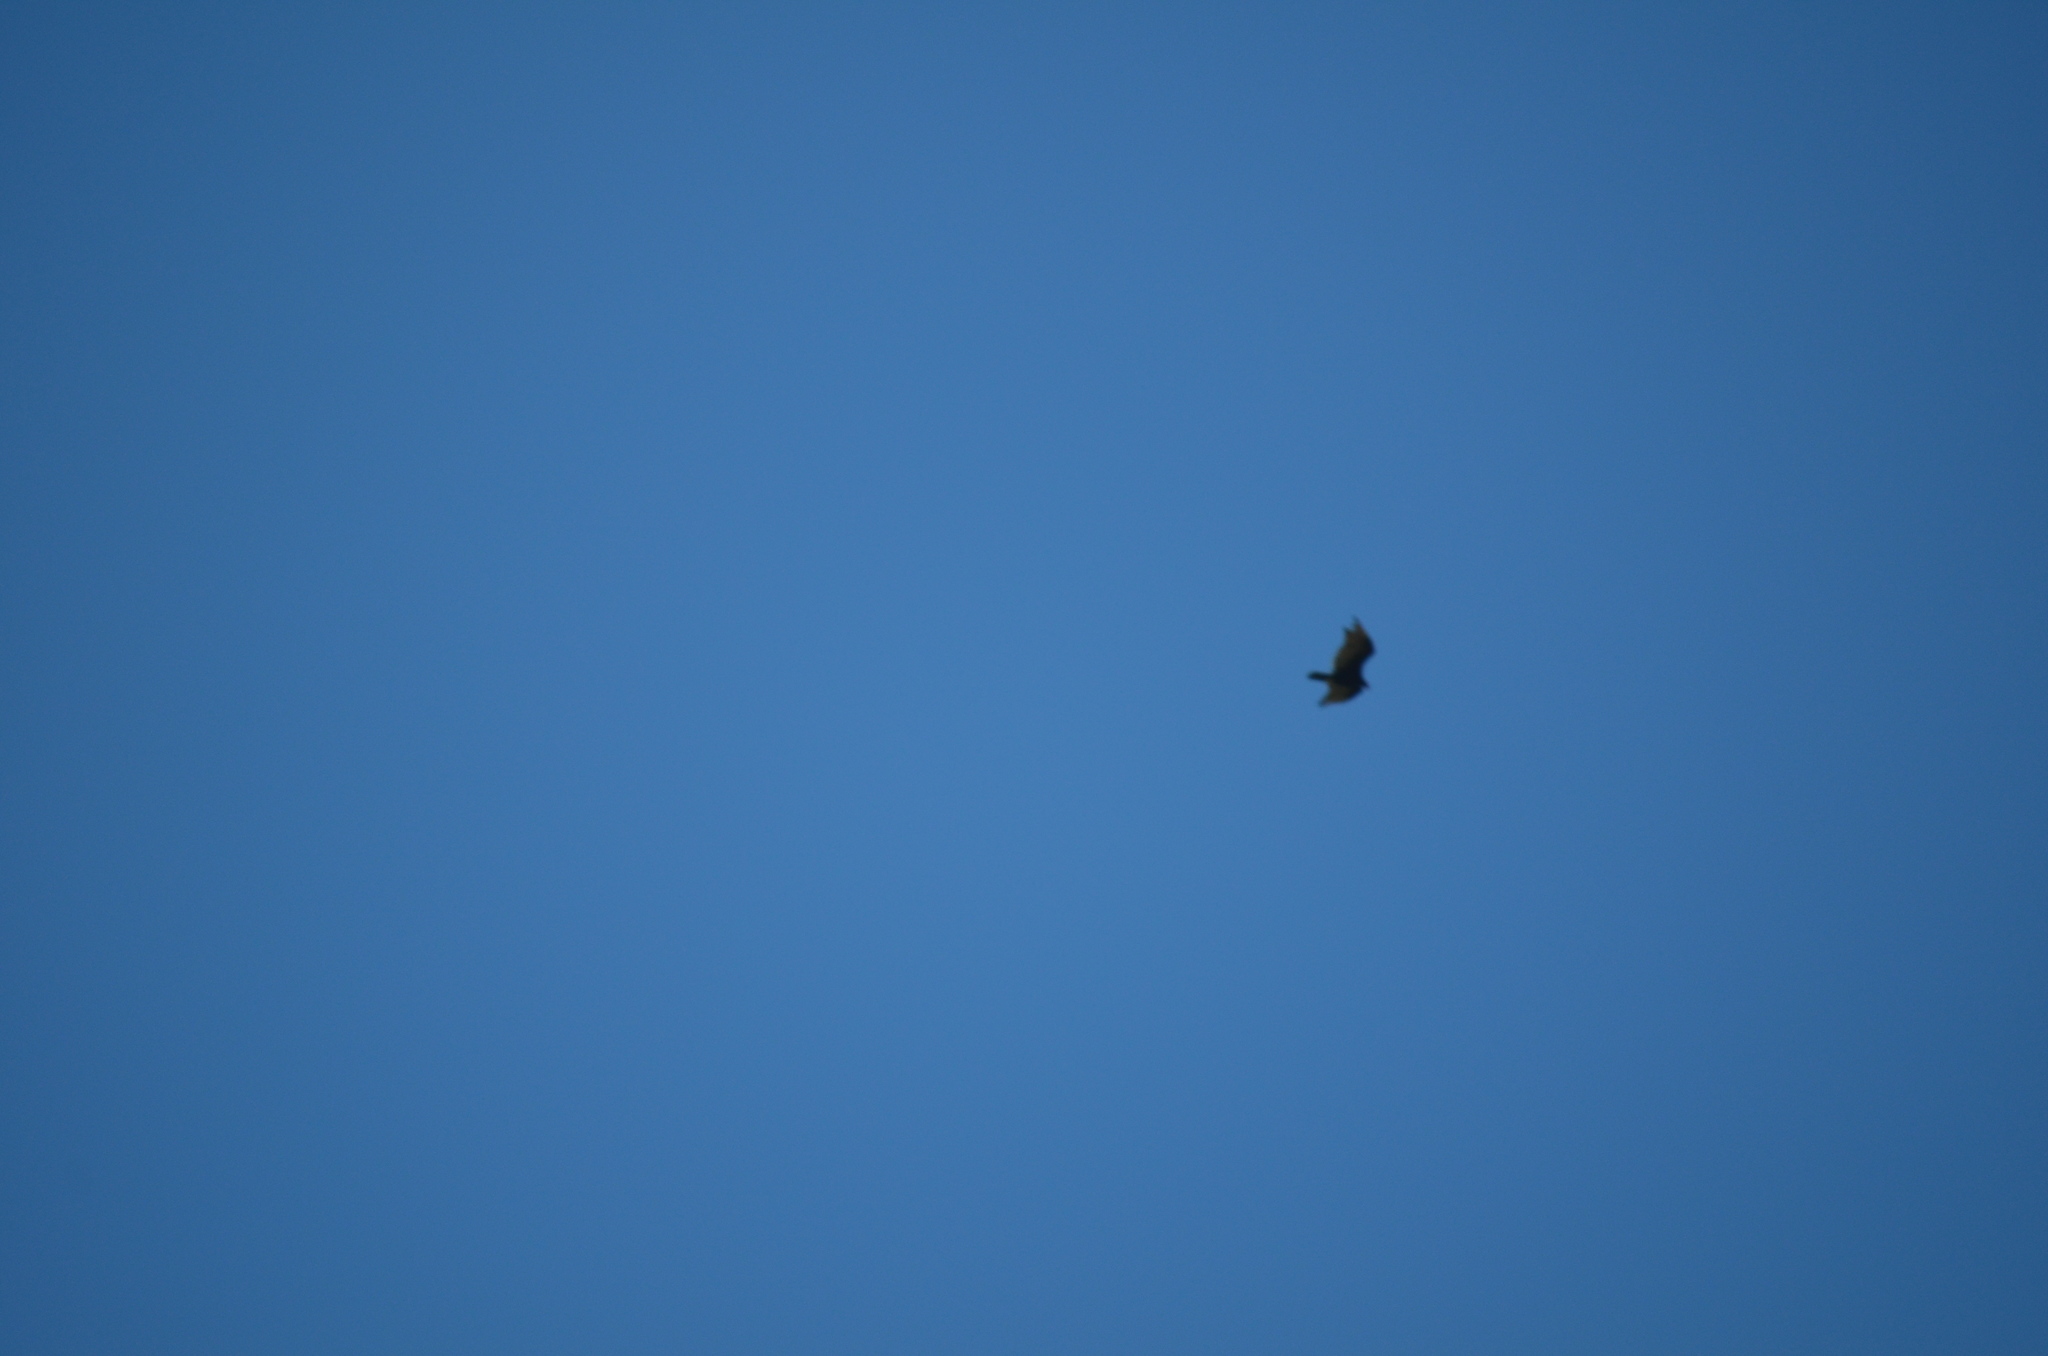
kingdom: Animalia
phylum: Chordata
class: Aves
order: Accipitriformes
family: Cathartidae
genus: Cathartes
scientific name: Cathartes aura
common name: Turkey vulture
